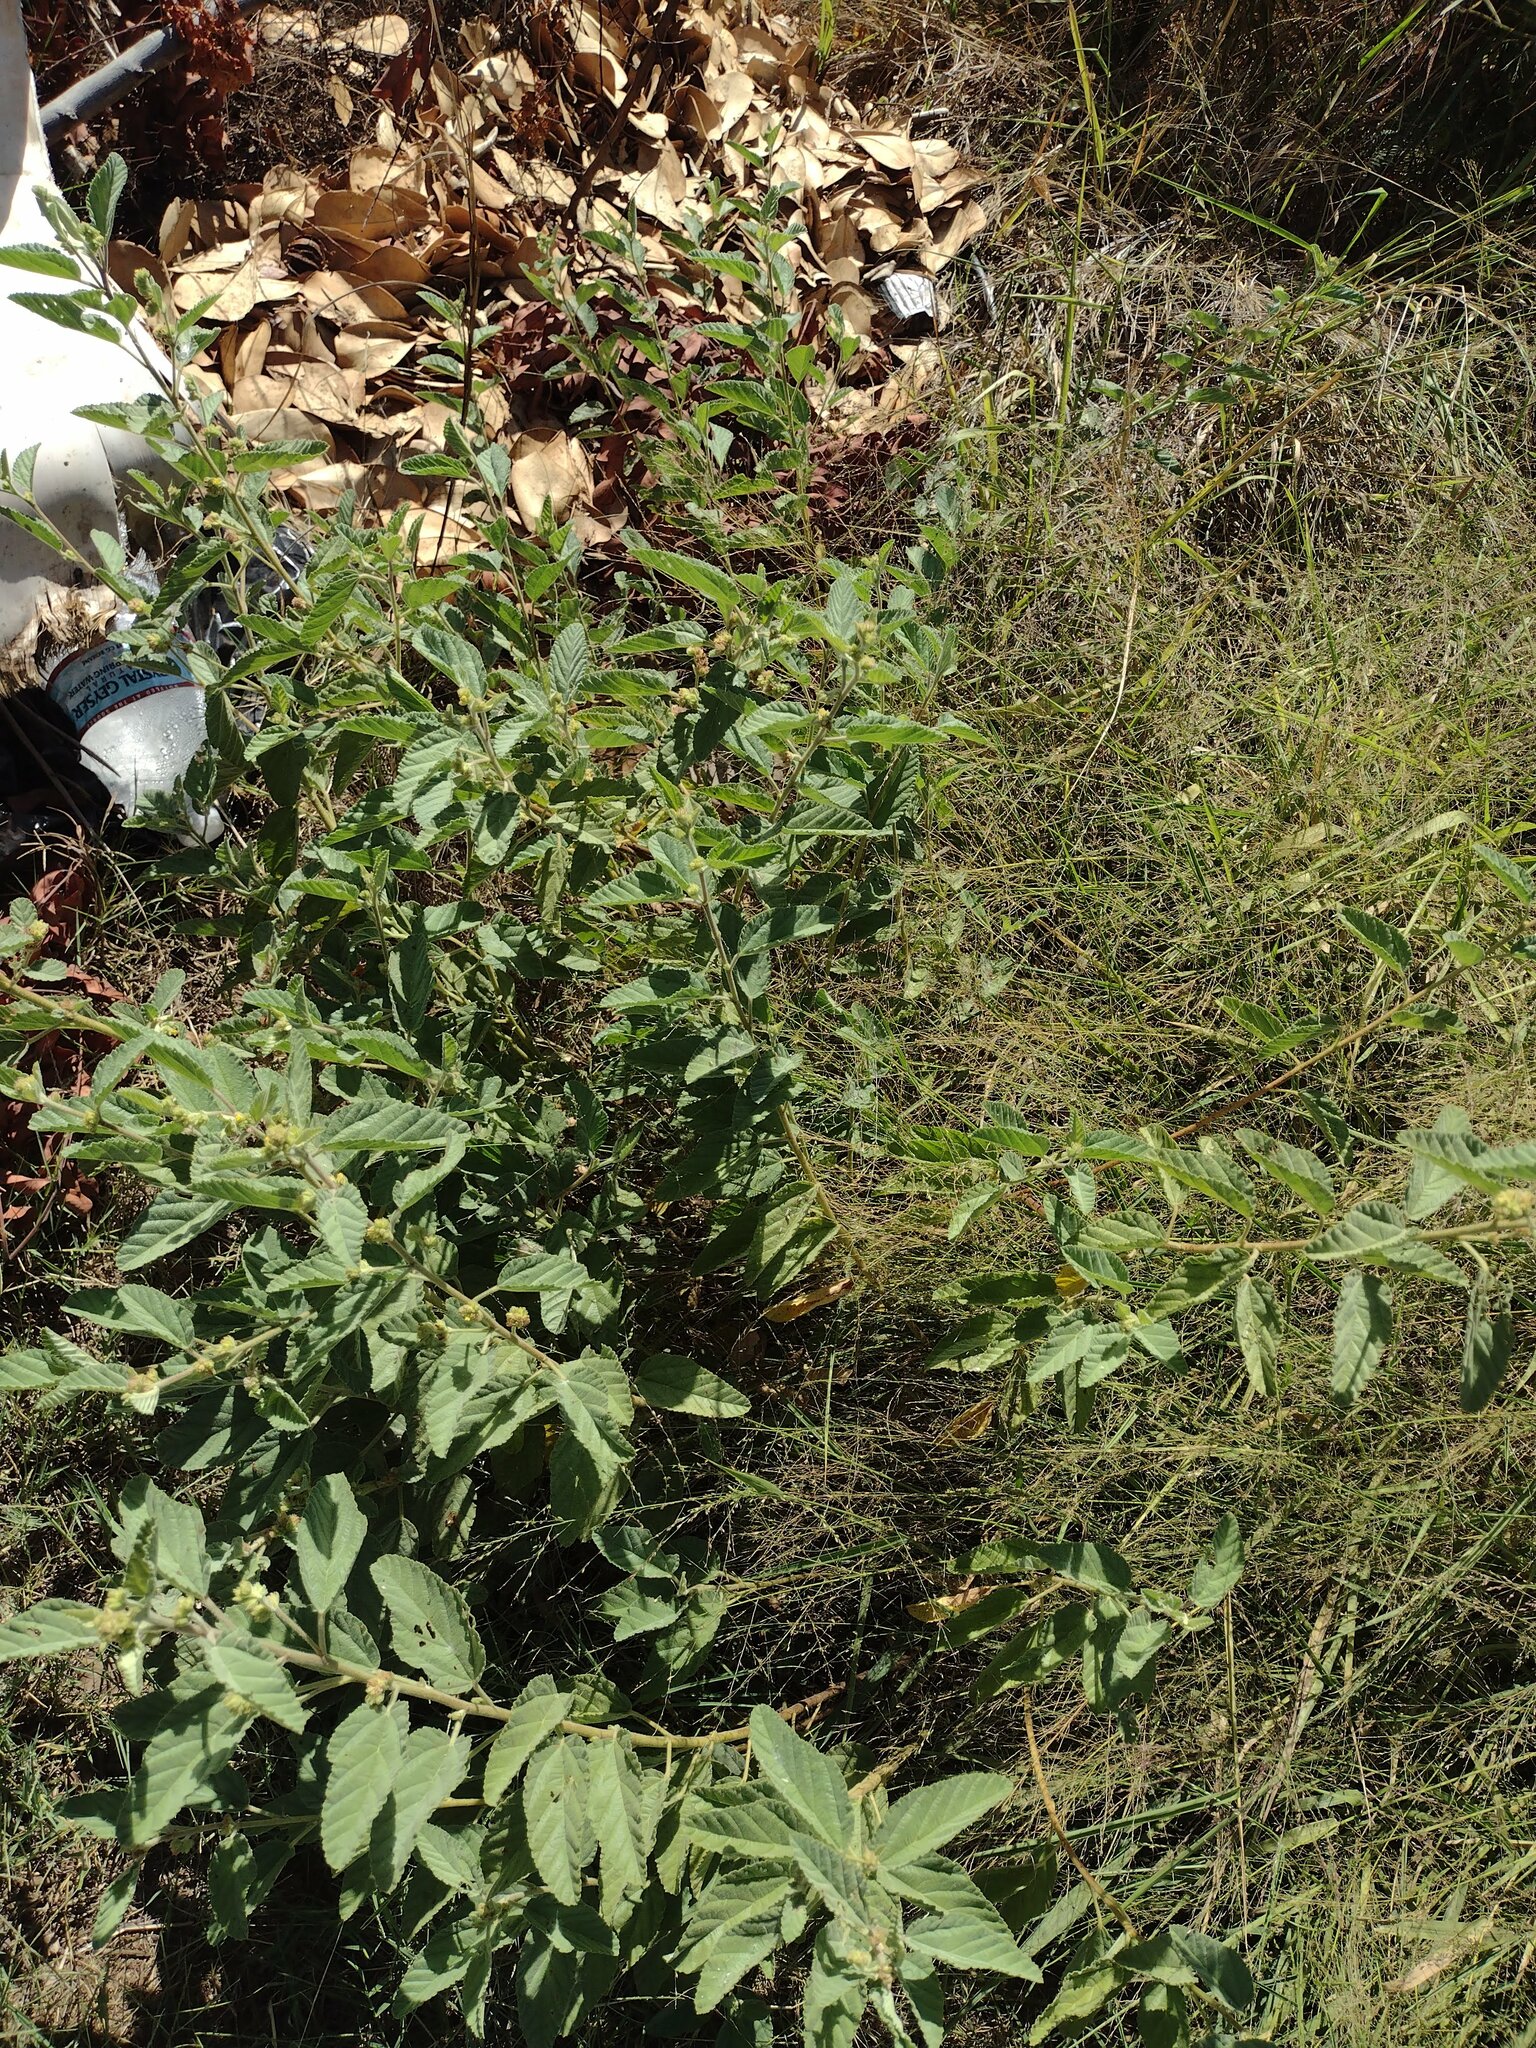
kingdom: Plantae
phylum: Tracheophyta
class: Magnoliopsida
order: Malvales
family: Malvaceae
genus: Waltheria
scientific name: Waltheria indica
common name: Leather-coat
